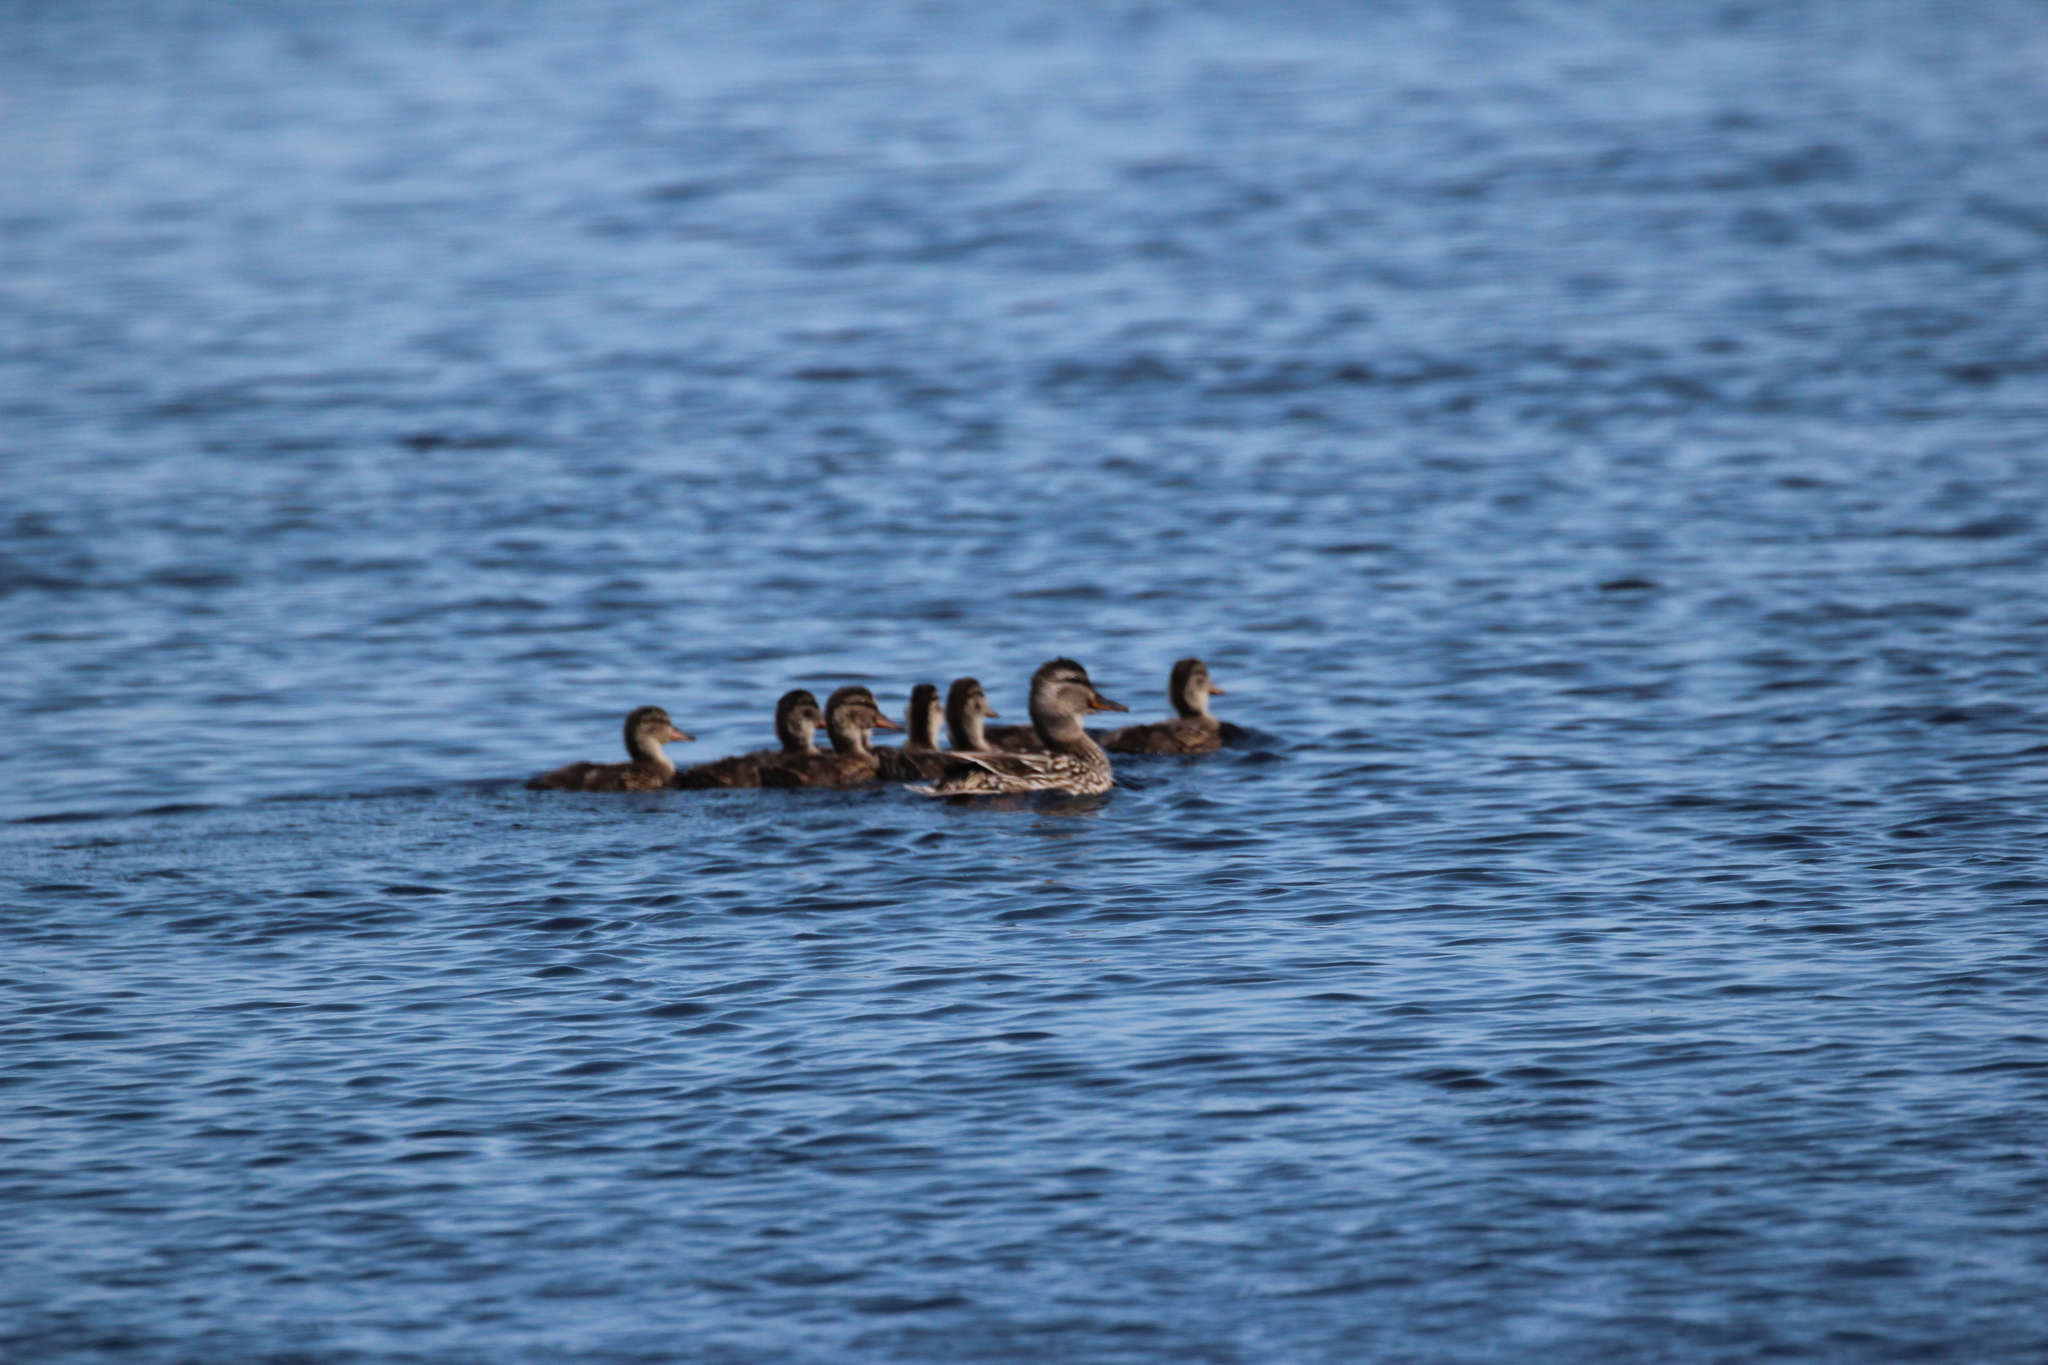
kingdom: Animalia
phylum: Chordata
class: Aves
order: Anseriformes
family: Anatidae
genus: Anas
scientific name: Anas platyrhynchos
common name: Mallard
